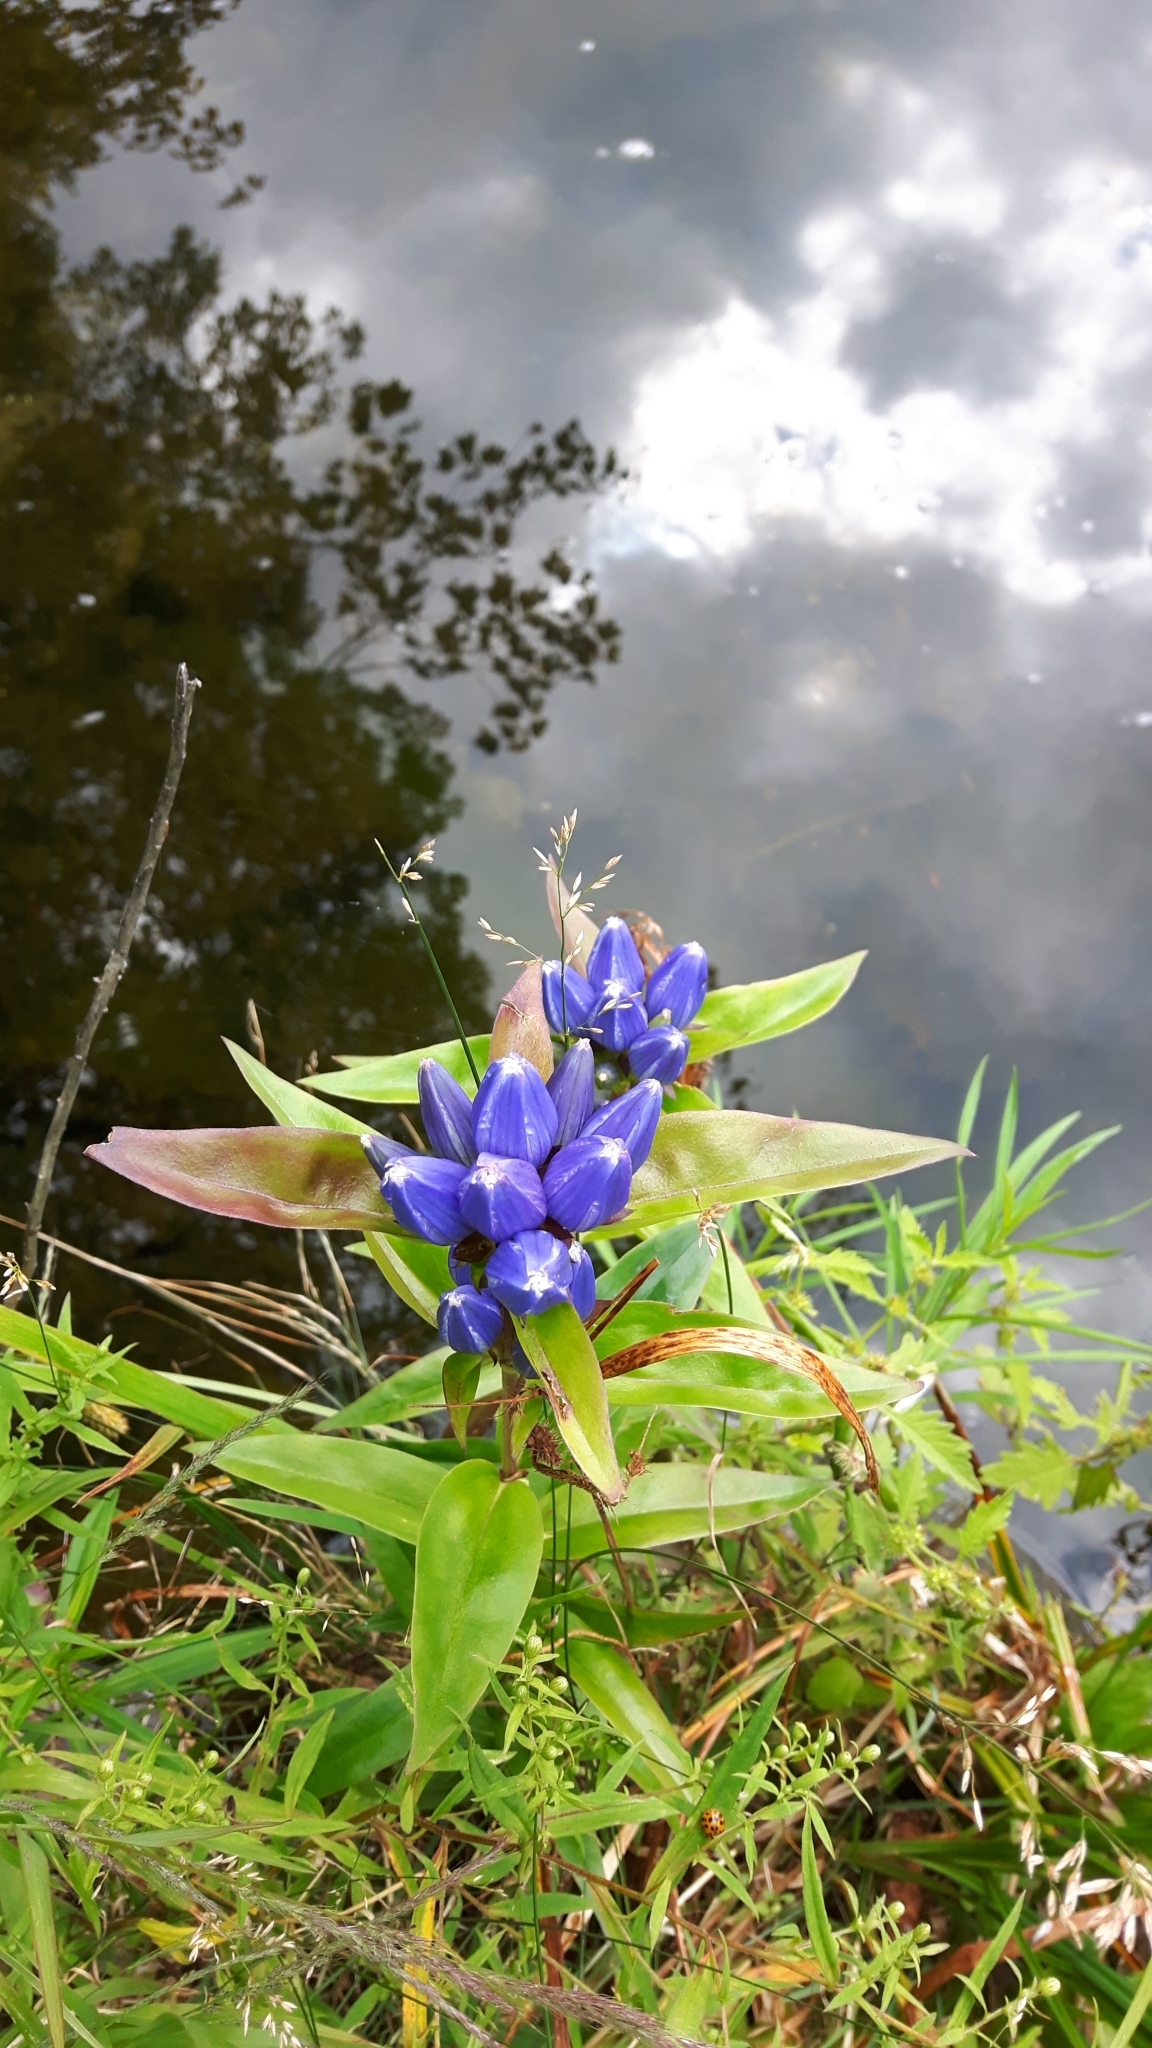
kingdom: Plantae
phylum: Tracheophyta
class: Magnoliopsida
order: Gentianales
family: Gentianaceae
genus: Gentiana
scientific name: Gentiana andrewsii
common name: Bottle gentian
